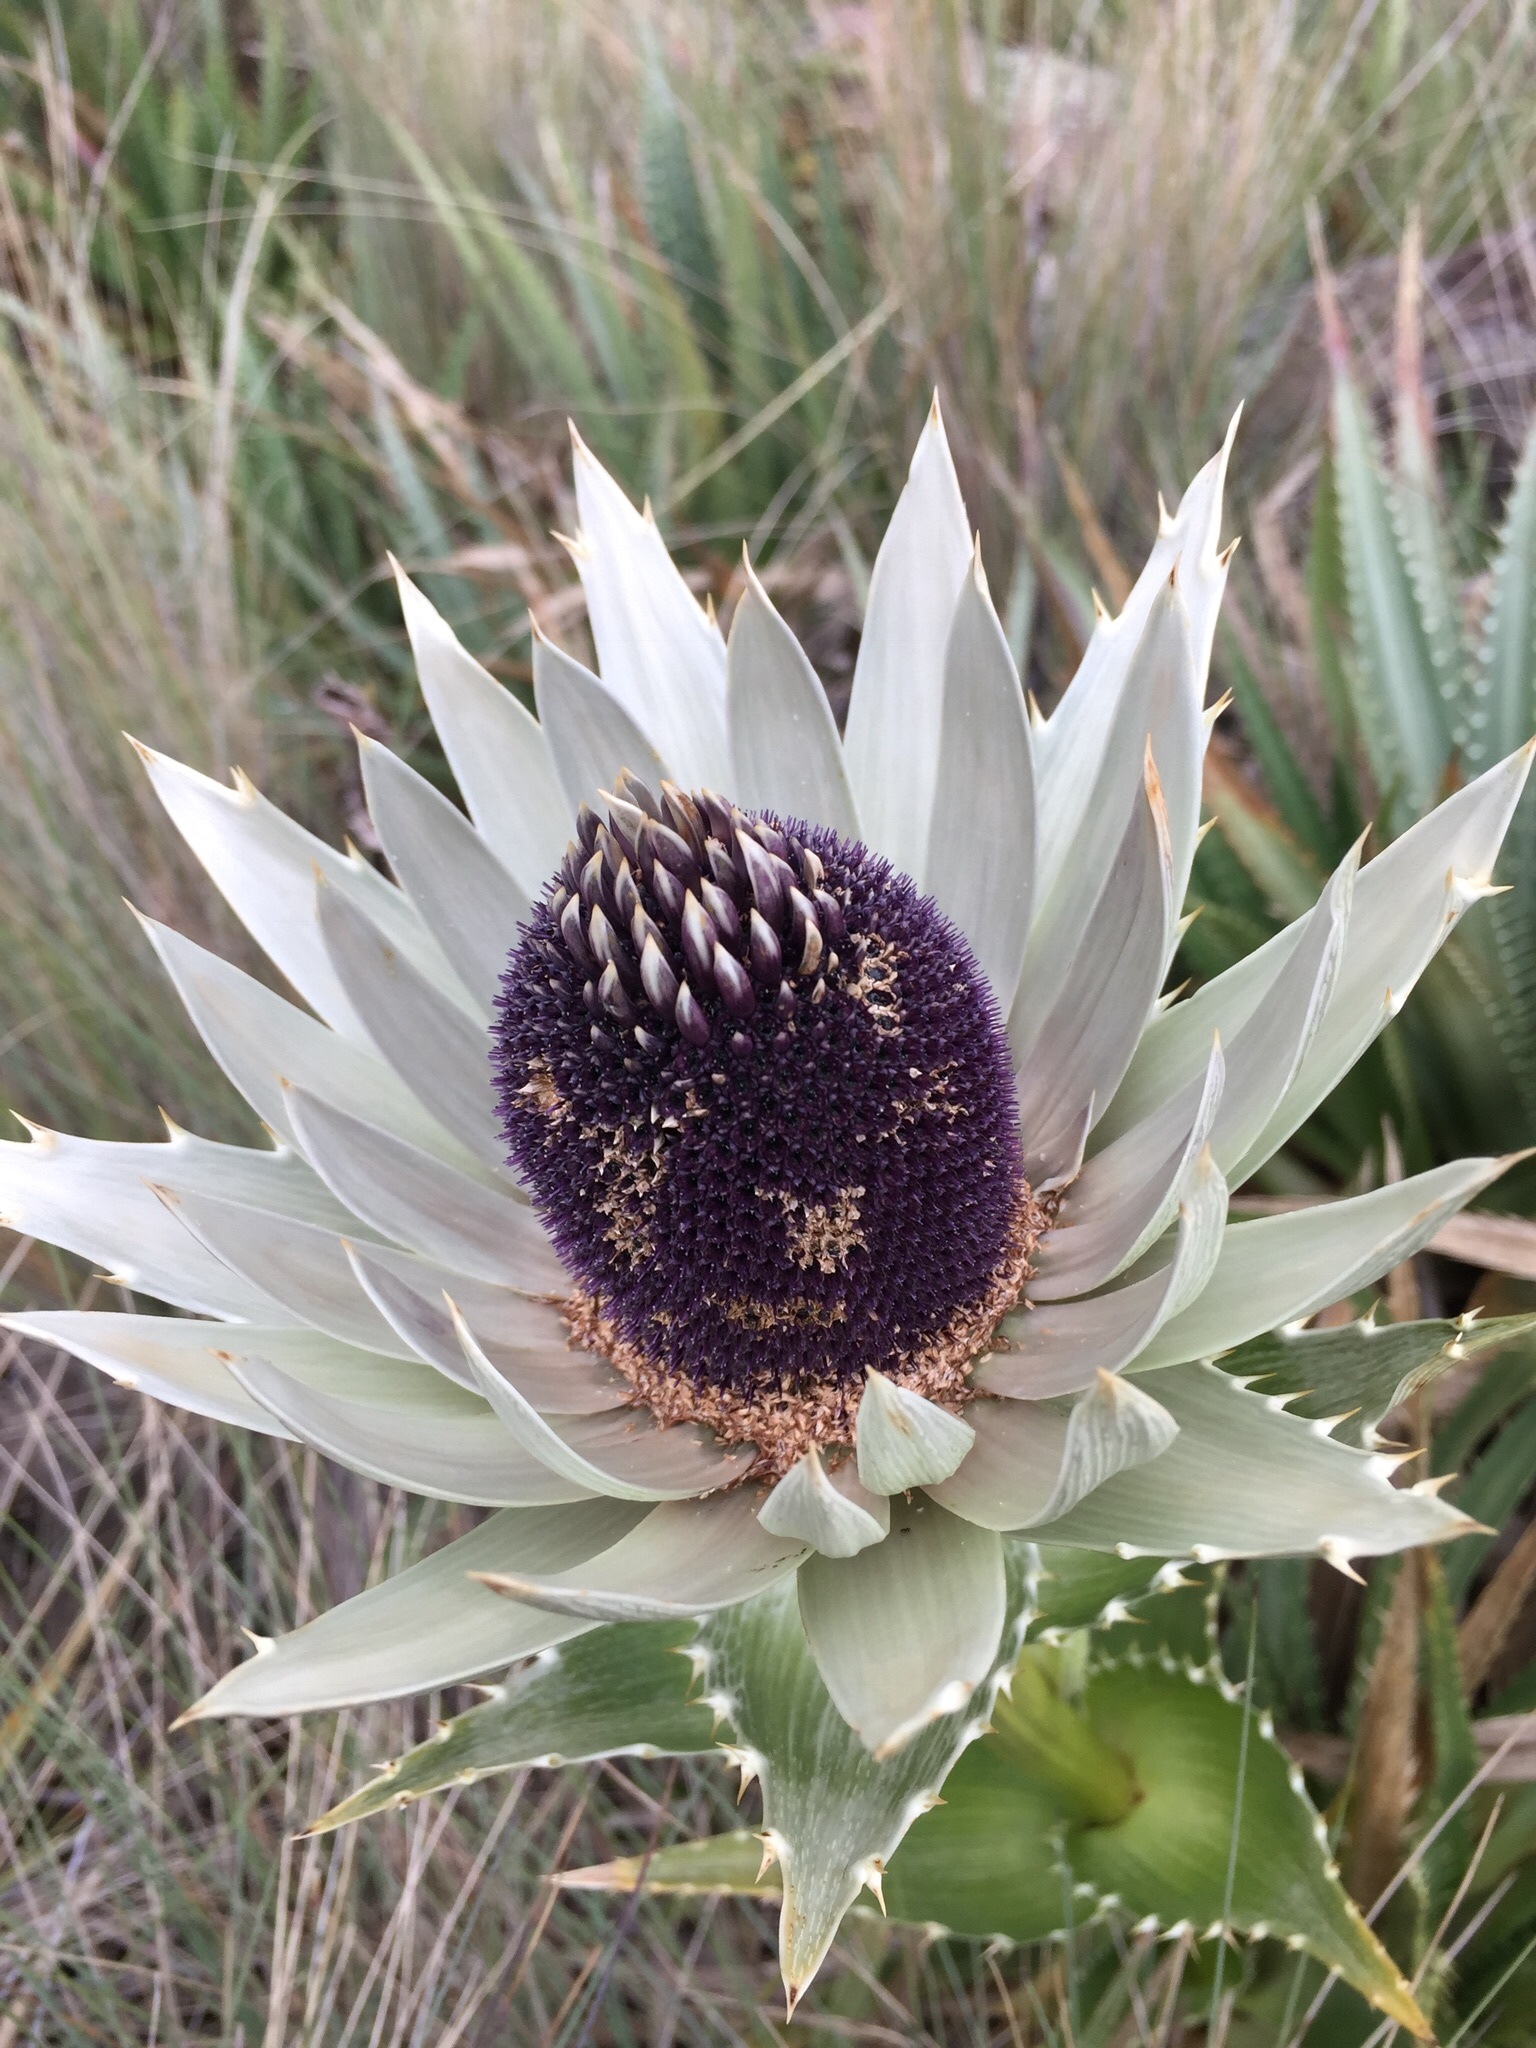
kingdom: Plantae
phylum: Tracheophyta
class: Magnoliopsida
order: Apiales
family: Apiaceae
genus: Eryngium
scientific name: Eryngium proteiflorum
